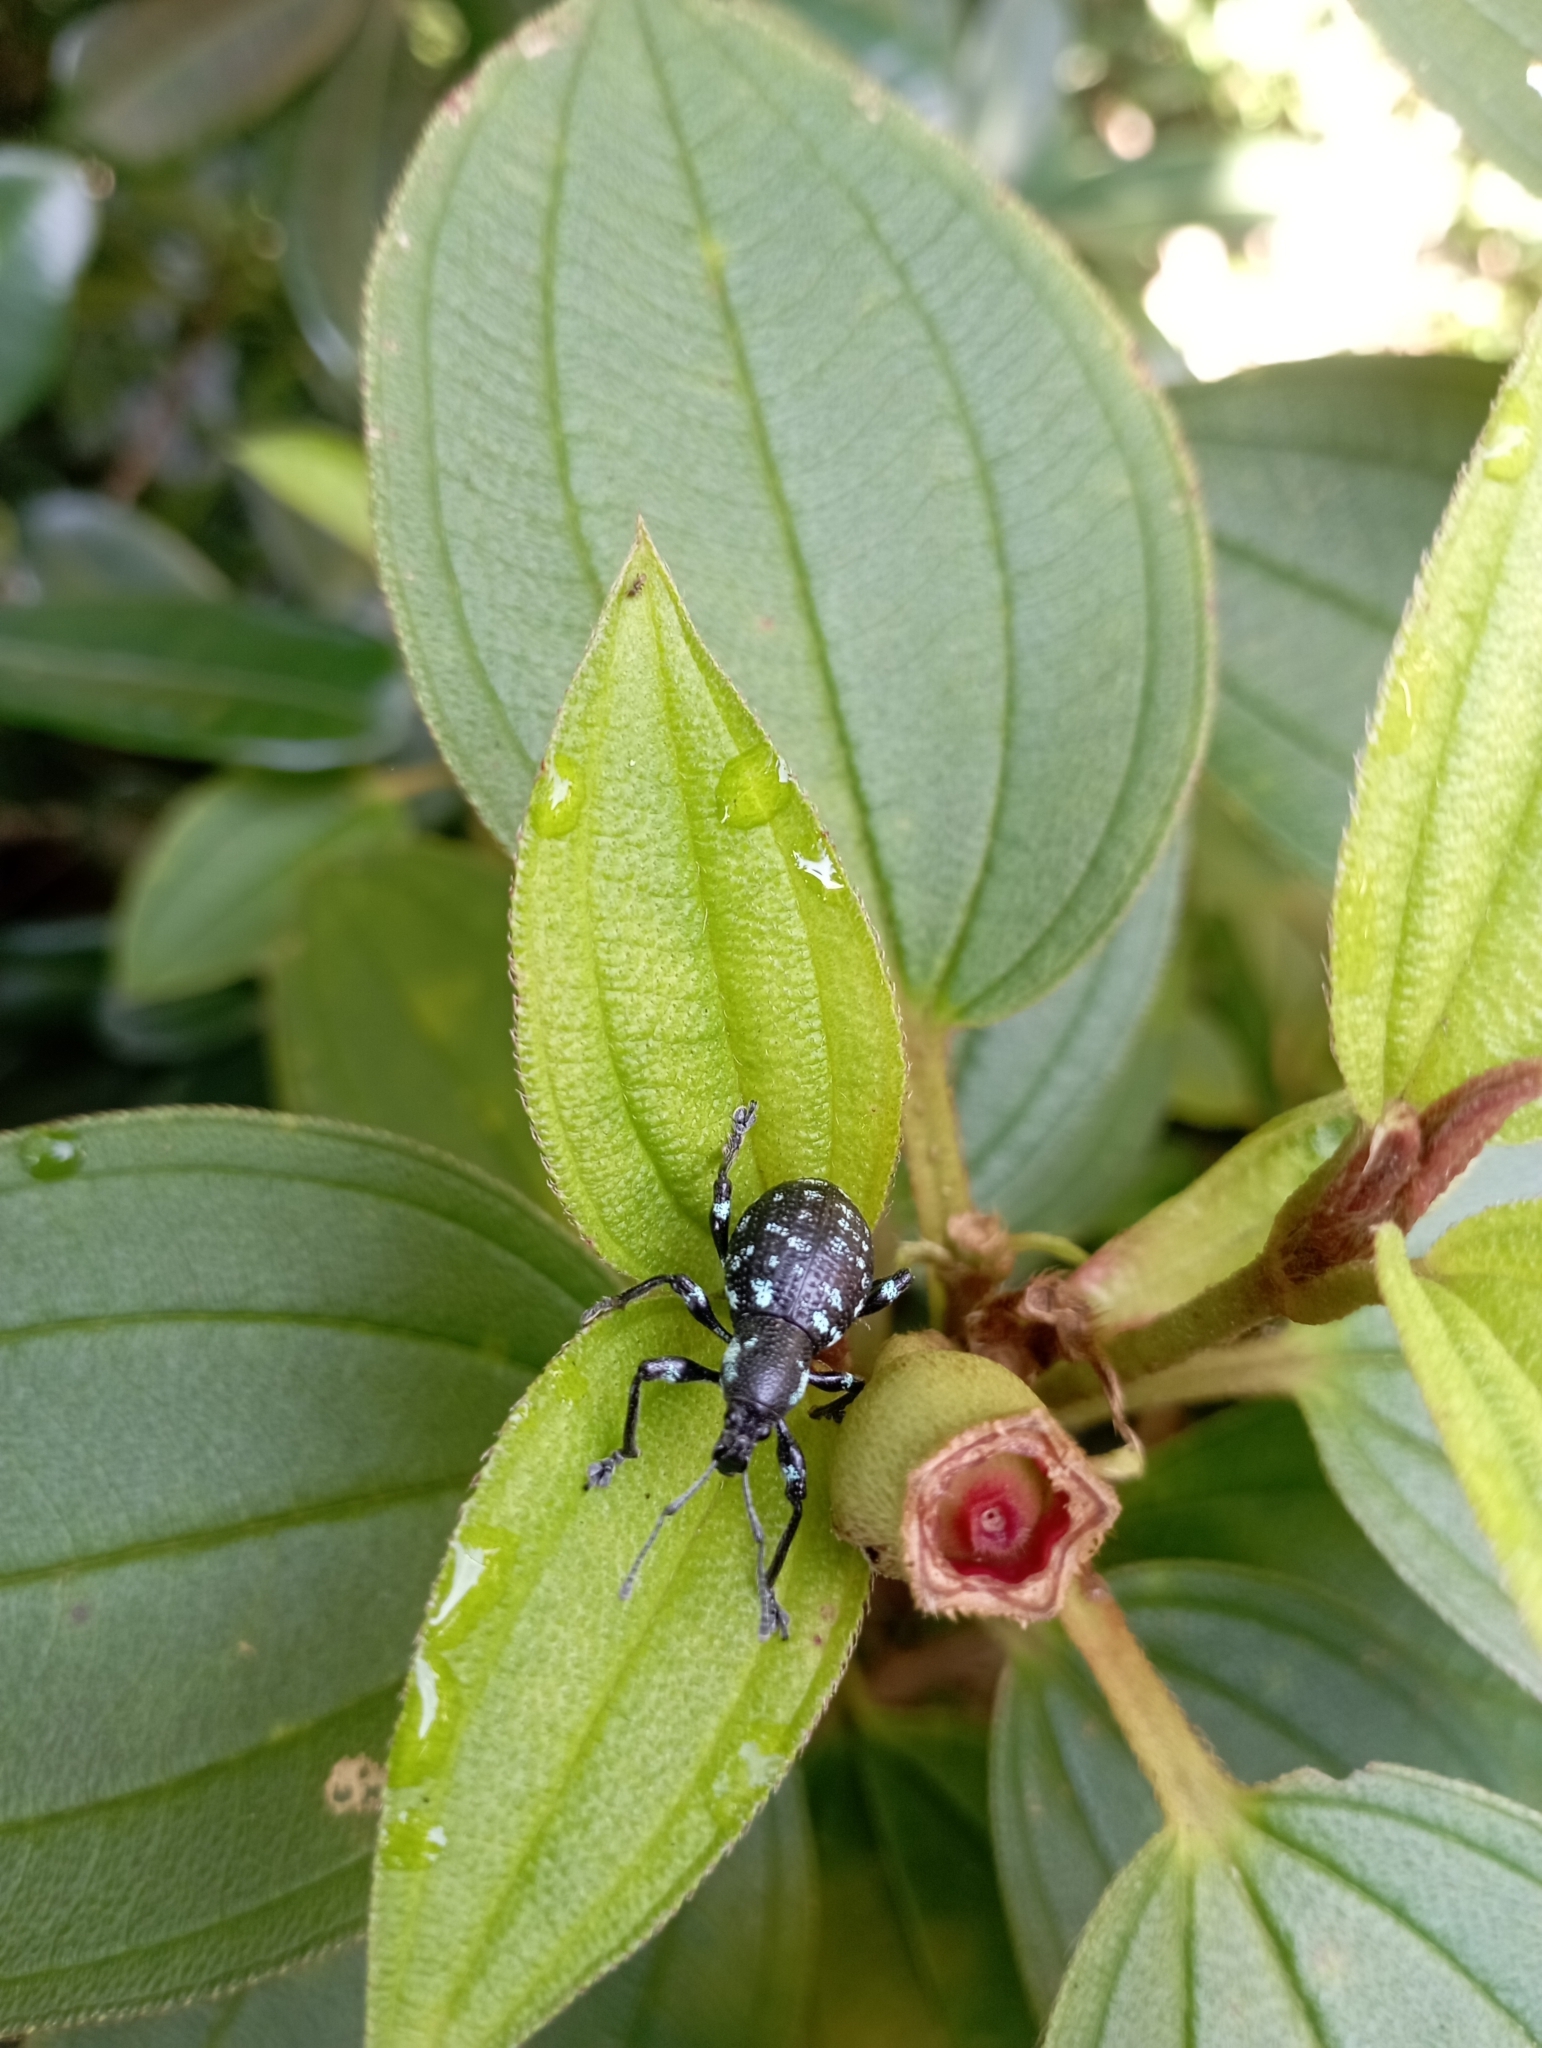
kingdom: Animalia
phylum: Arthropoda
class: Insecta
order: Coleoptera
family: Curculionidae
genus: Eupyrgops
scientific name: Eupyrgops waltonianus
